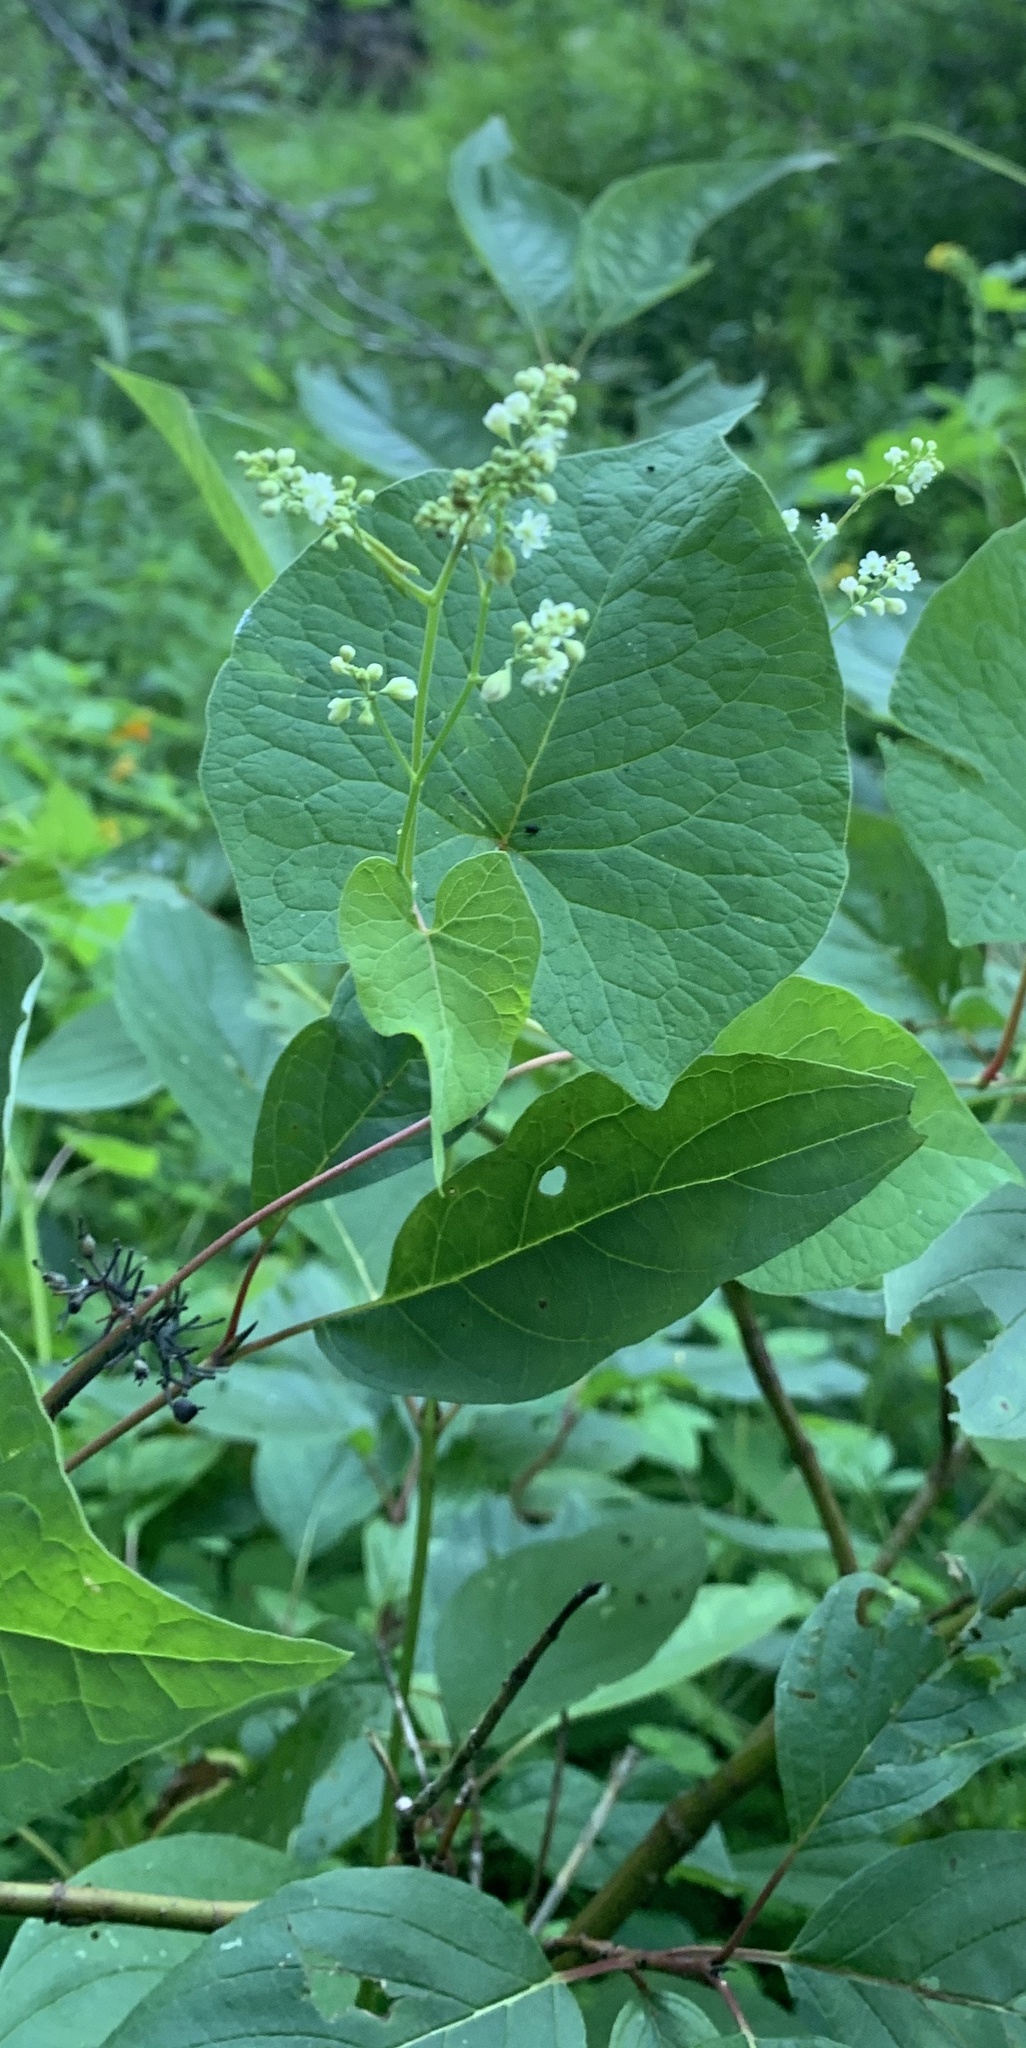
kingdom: Plantae
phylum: Tracheophyta
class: Magnoliopsida
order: Caryophyllales
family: Polygonaceae
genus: Fallopia
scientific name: Fallopia scandens
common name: Climbing false buckwheat
